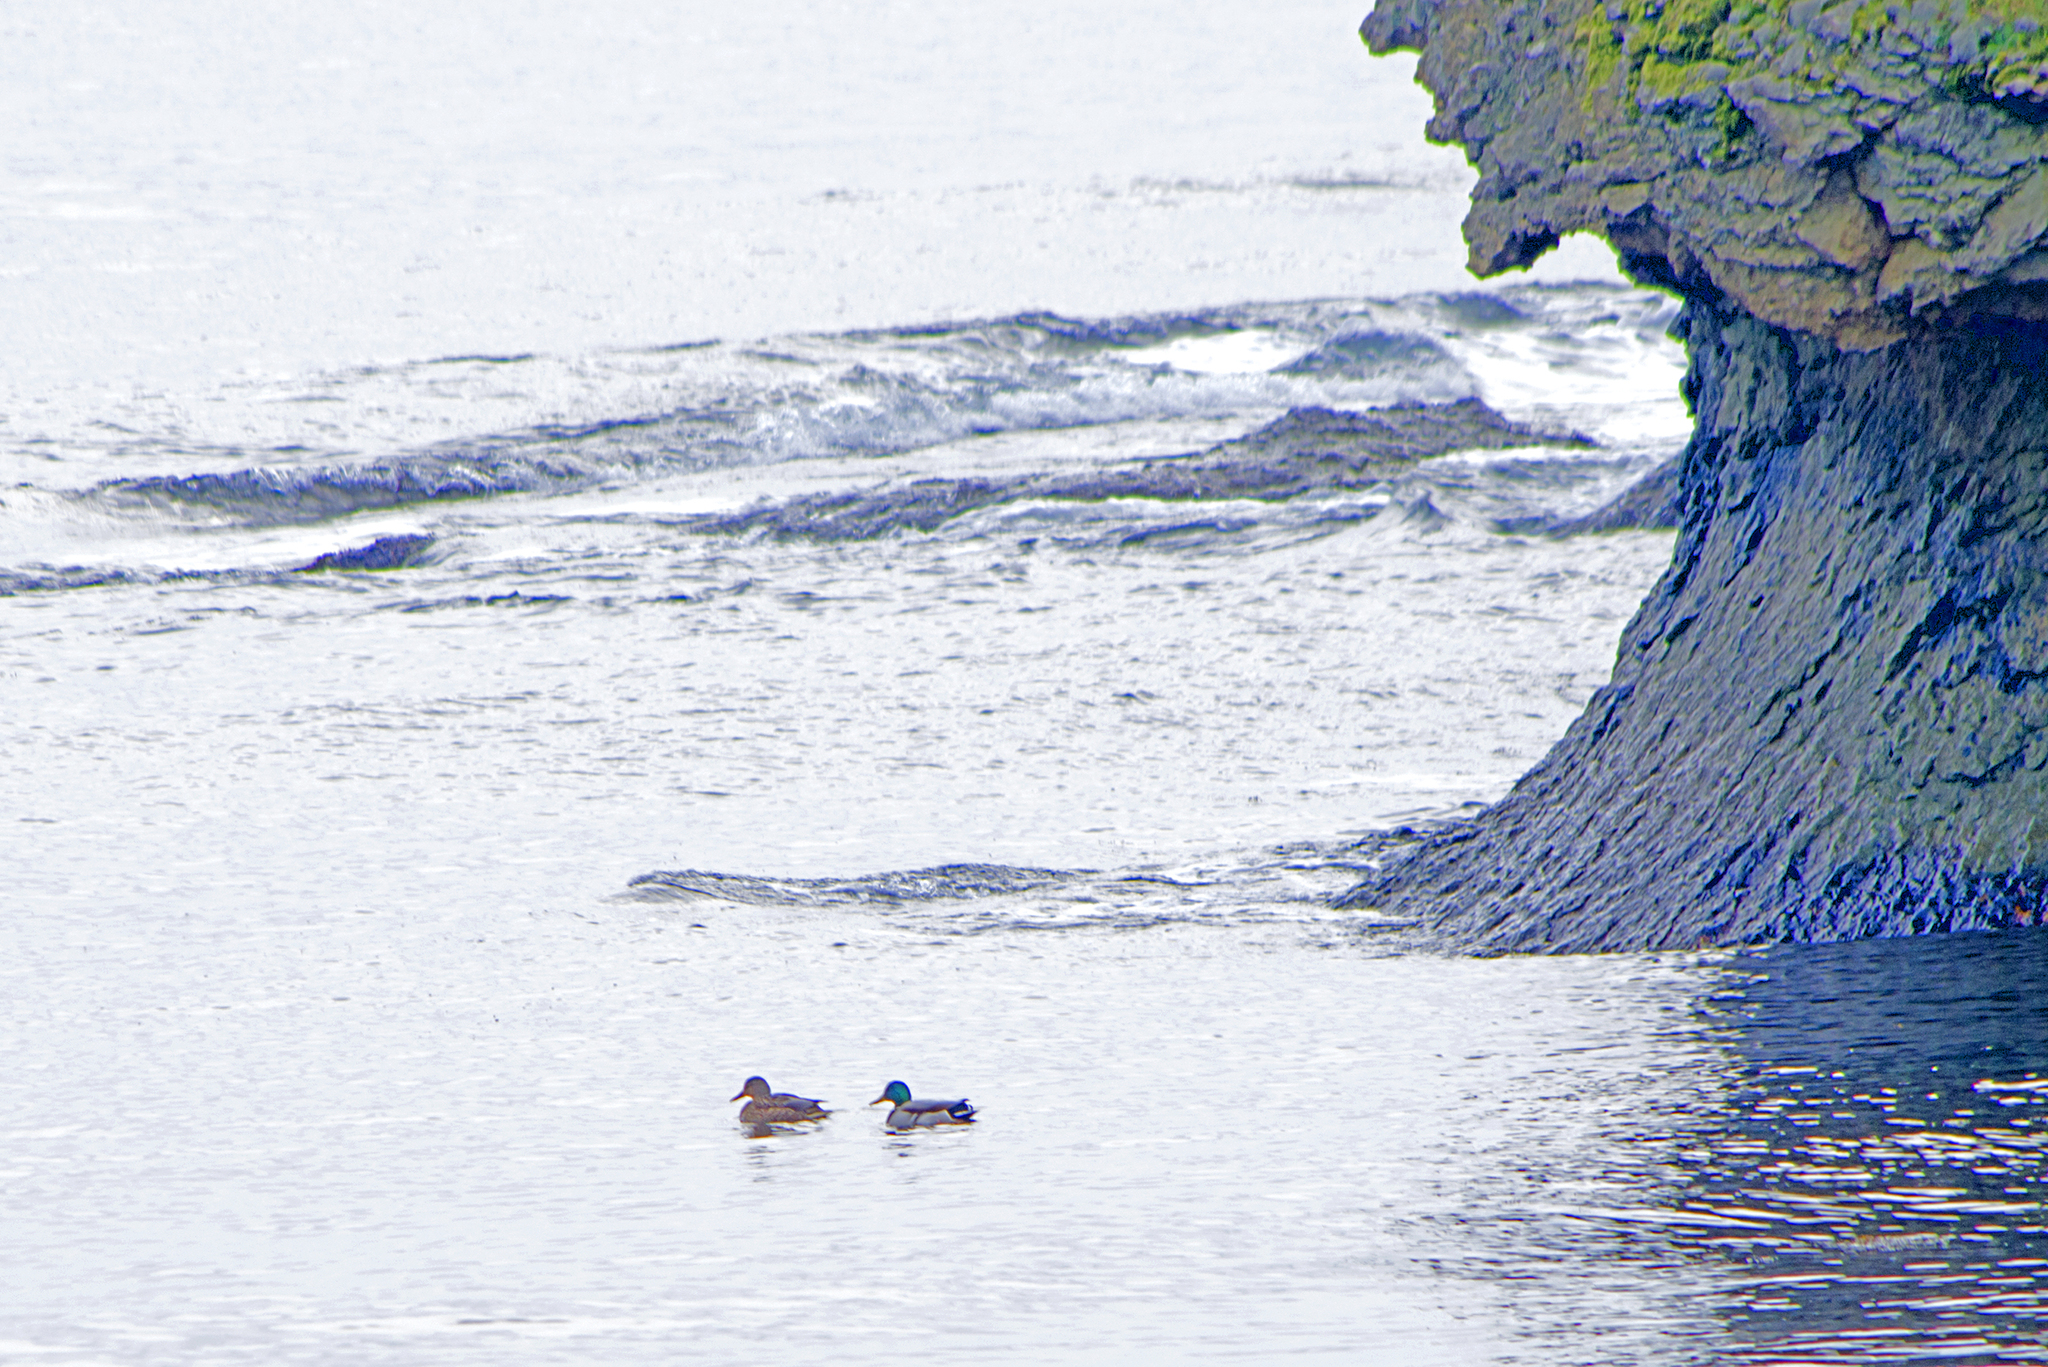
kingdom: Animalia
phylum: Chordata
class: Aves
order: Anseriformes
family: Anatidae
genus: Anas
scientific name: Anas platyrhynchos
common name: Mallard
